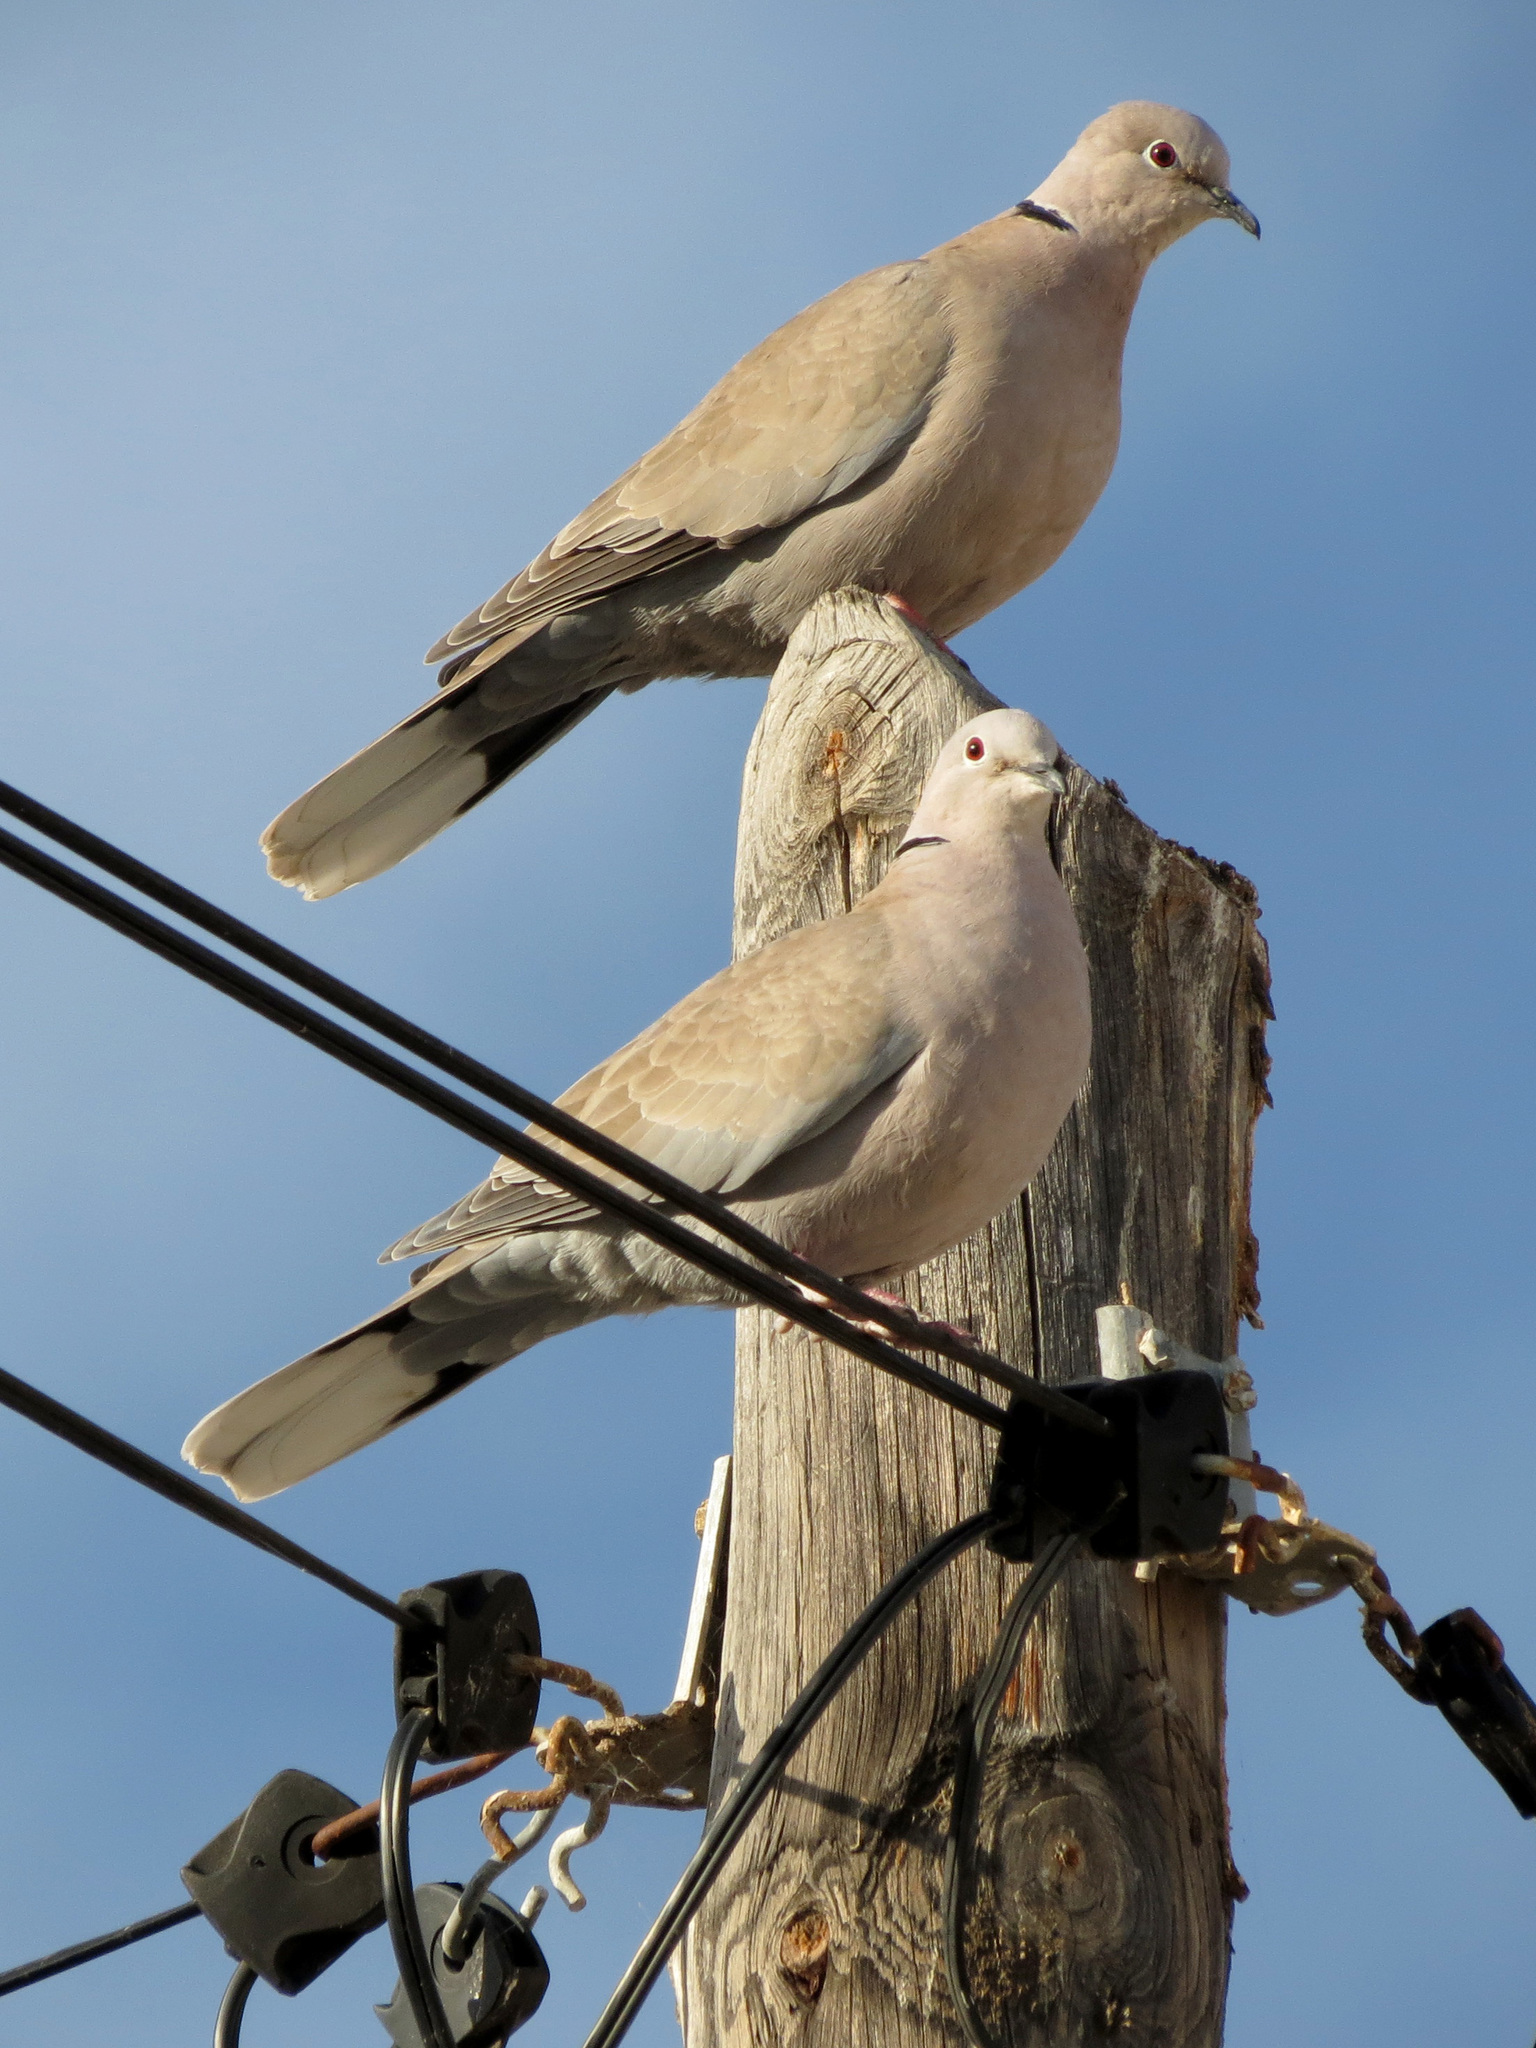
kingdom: Animalia
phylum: Chordata
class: Aves
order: Columbiformes
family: Columbidae
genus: Streptopelia
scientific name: Streptopelia decaocto
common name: Eurasian collared dove
